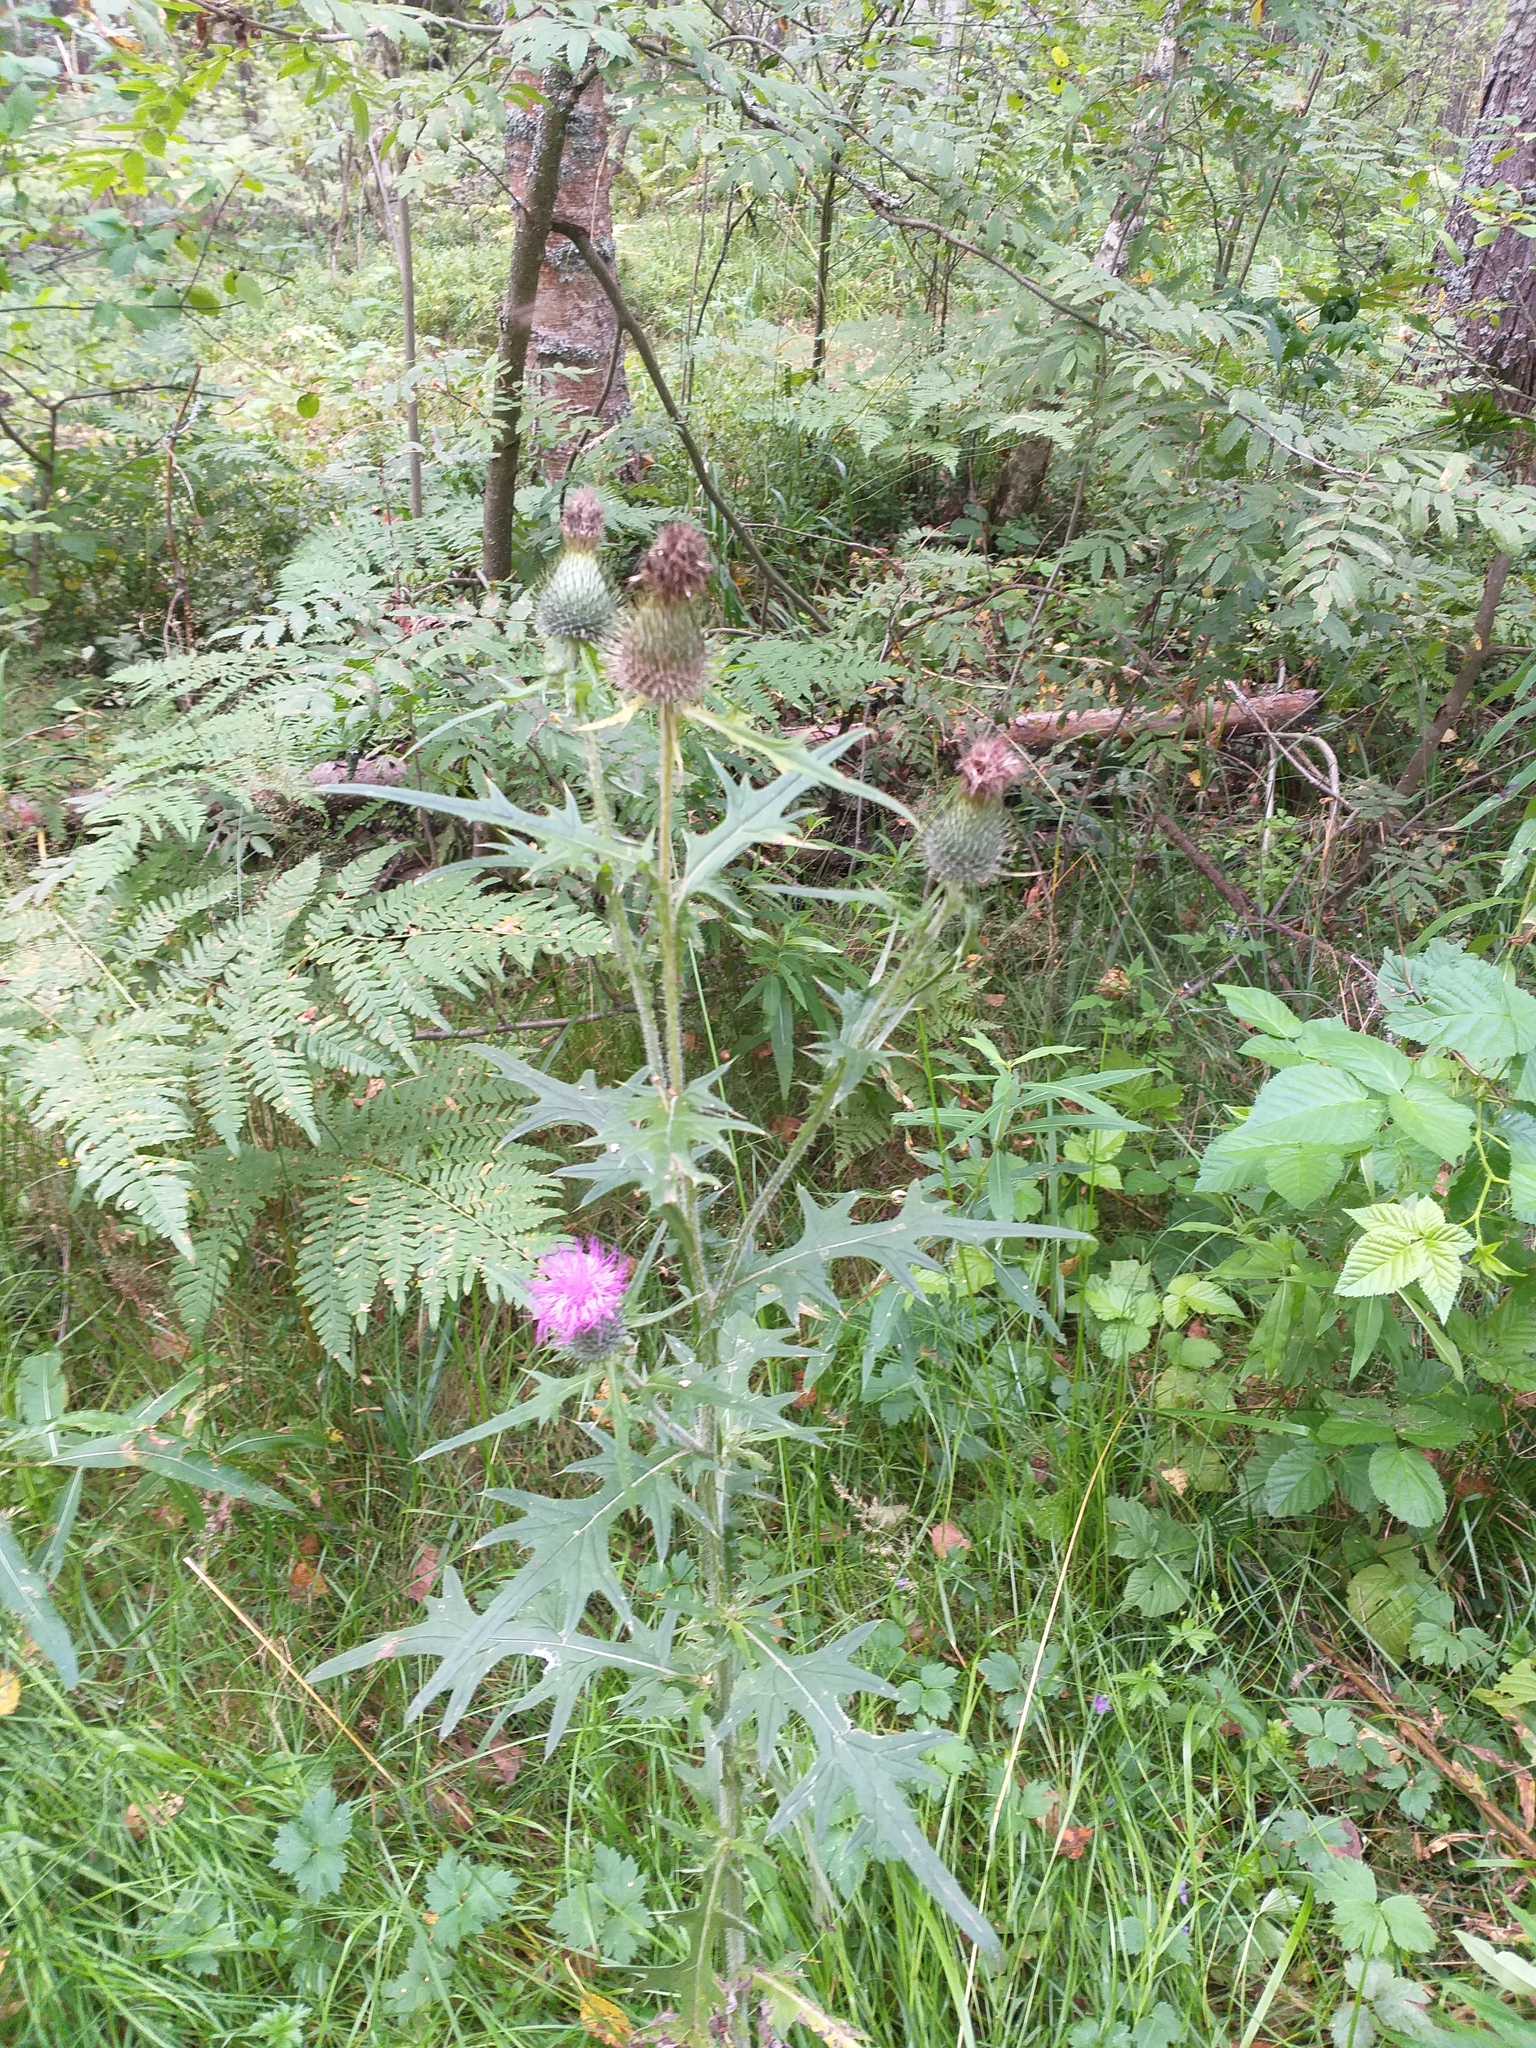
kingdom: Plantae
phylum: Tracheophyta
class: Magnoliopsida
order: Asterales
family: Asteraceae
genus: Cirsium
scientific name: Cirsium vulgare
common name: Bull thistle
